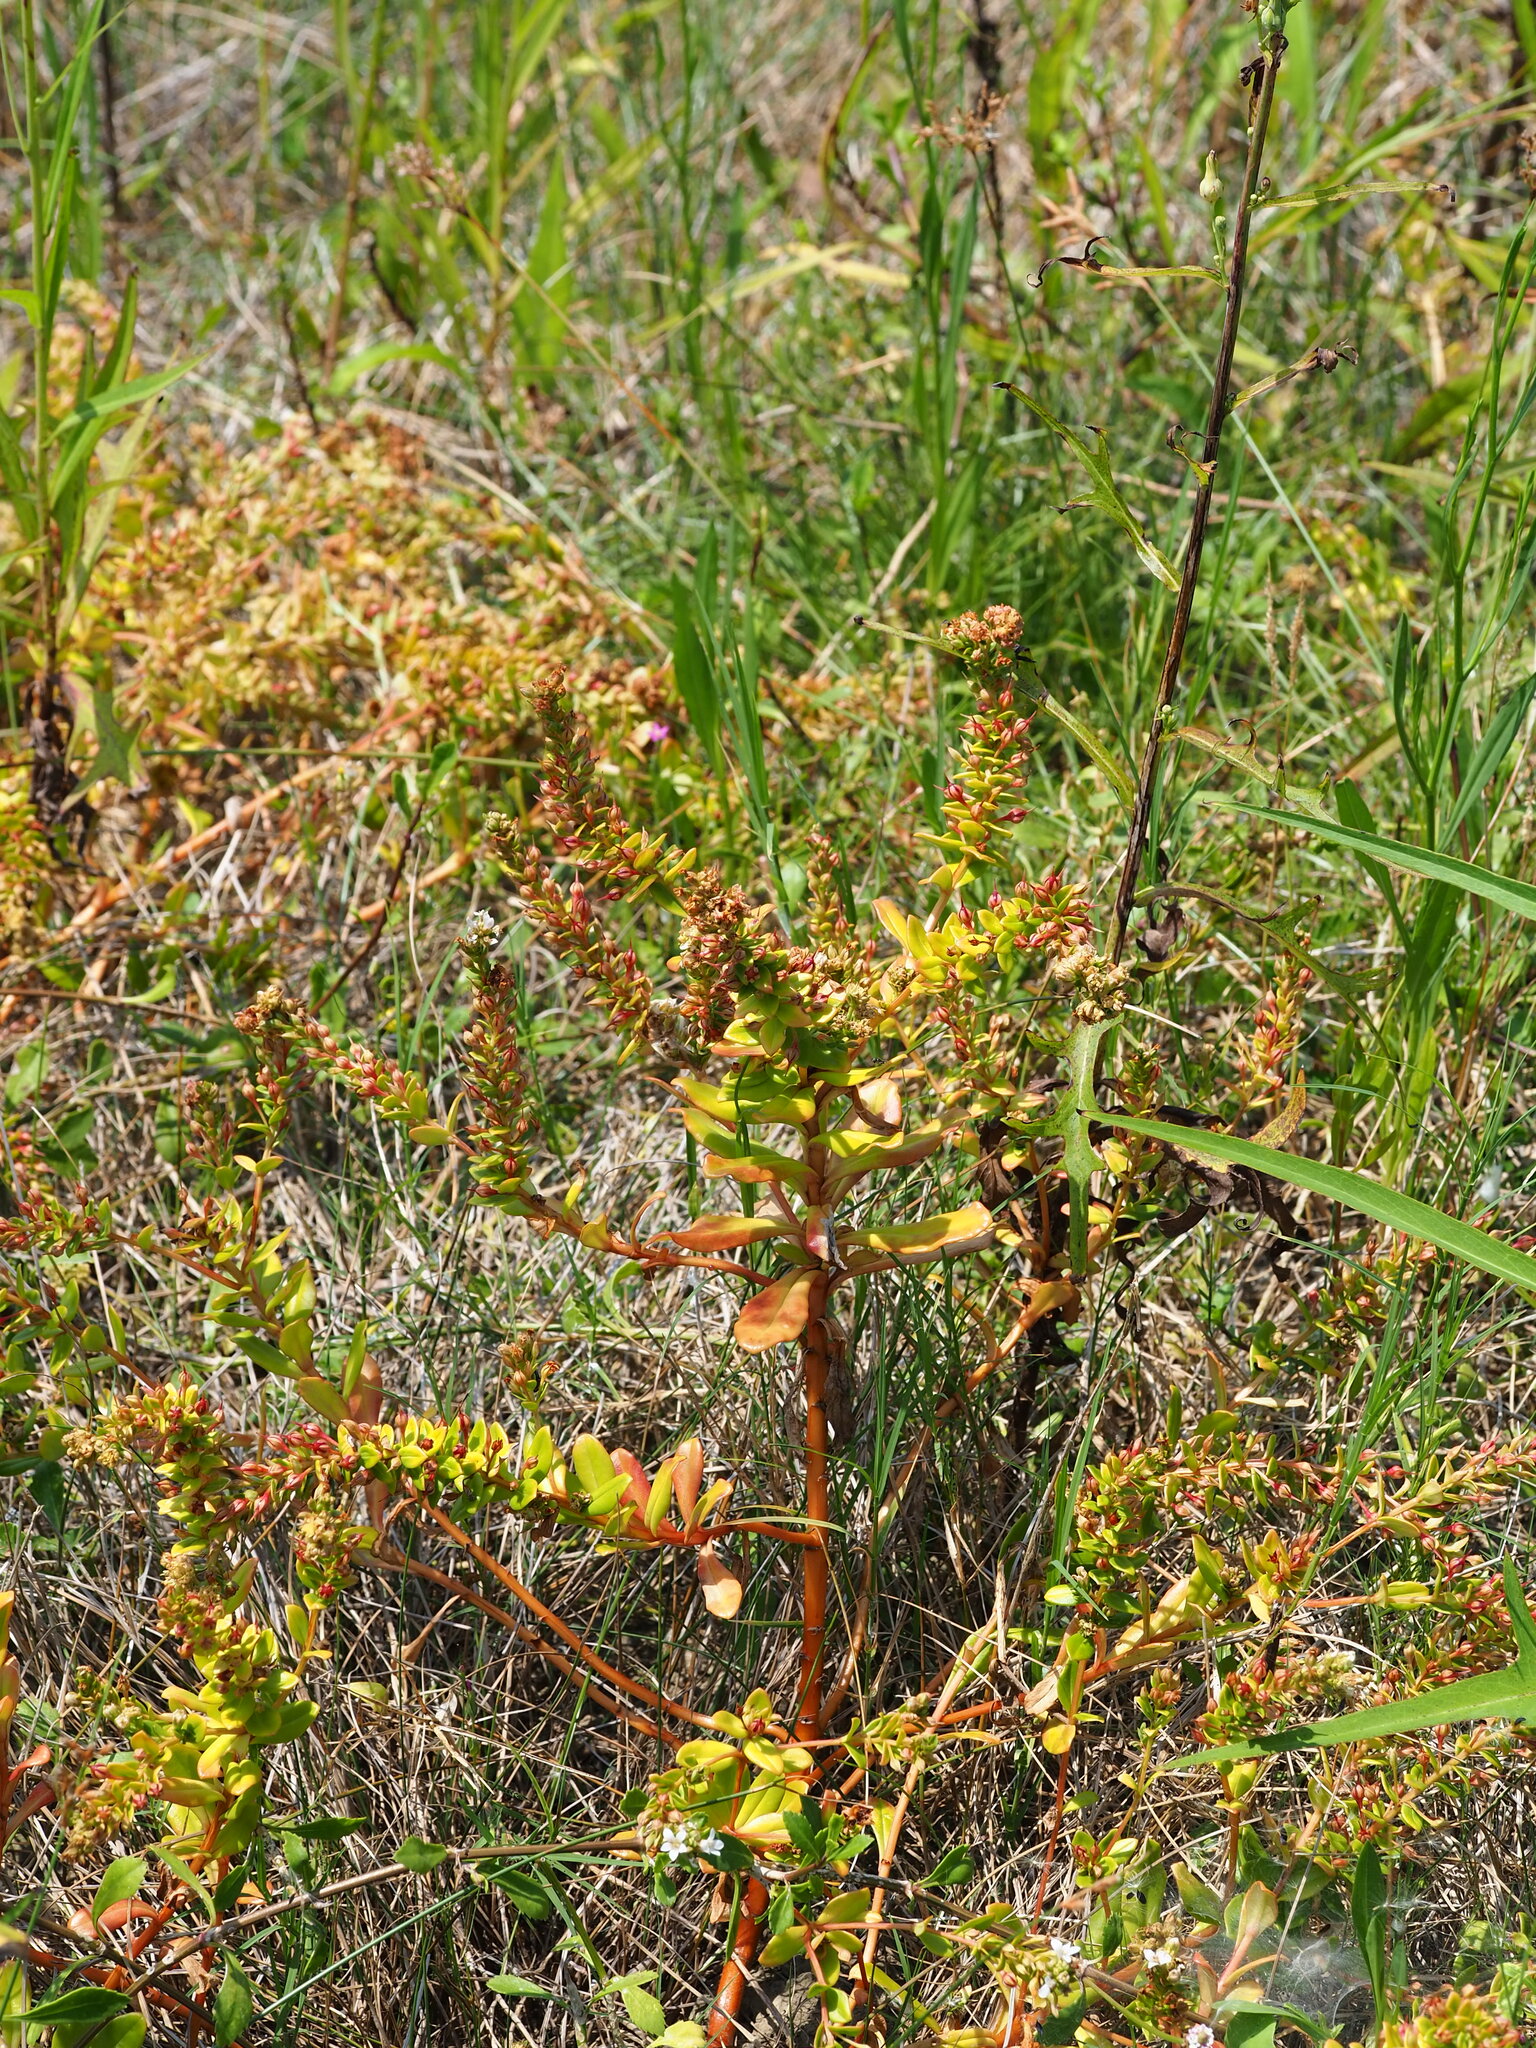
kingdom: Plantae
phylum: Tracheophyta
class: Magnoliopsida
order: Ericales
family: Primulaceae
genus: Lysimachia
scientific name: Lysimachia mauritiana
